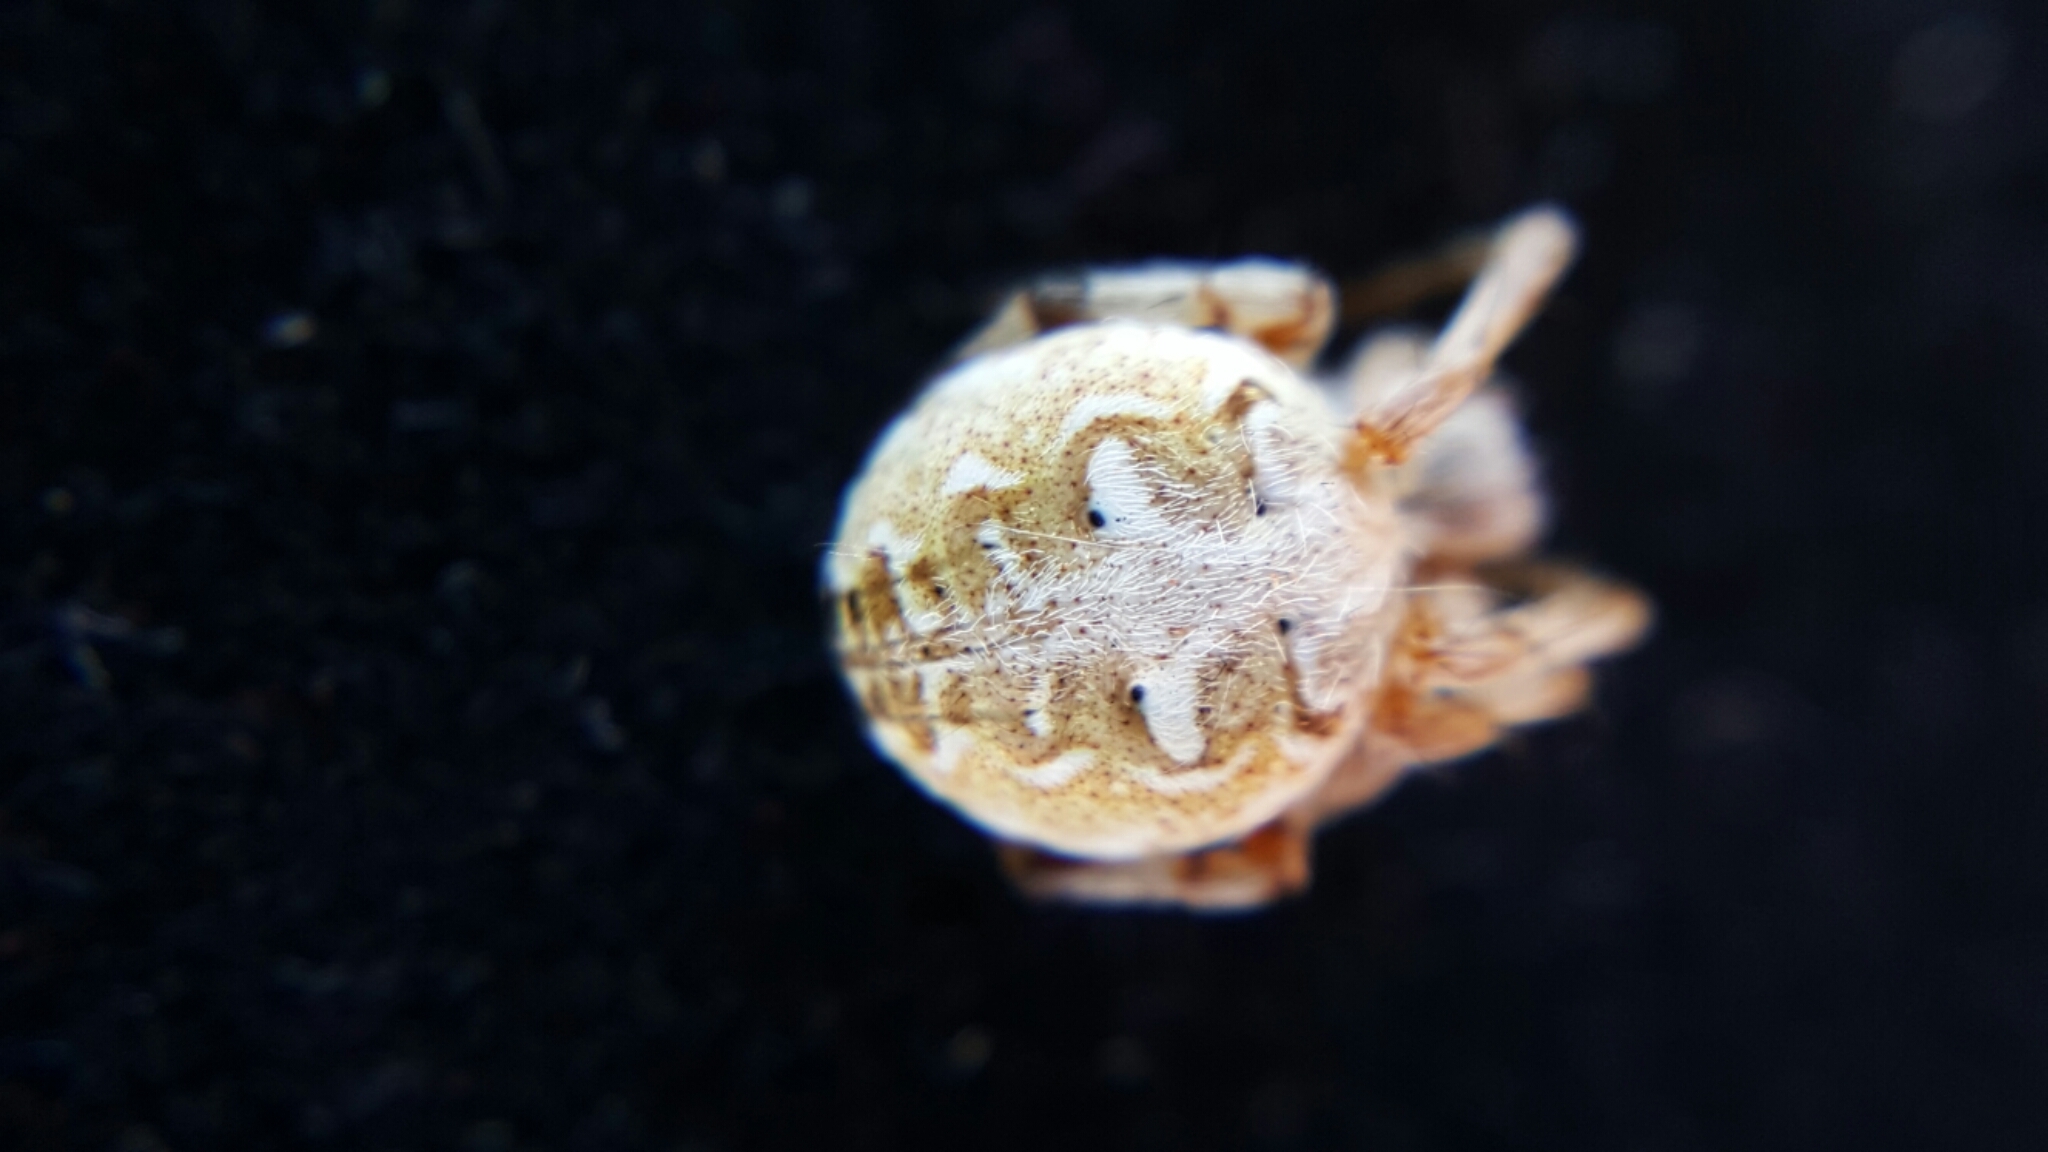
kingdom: Animalia
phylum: Arthropoda
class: Arachnida
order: Araneae
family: Araneidae
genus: Metepeira
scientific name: Metepeira arizonica
